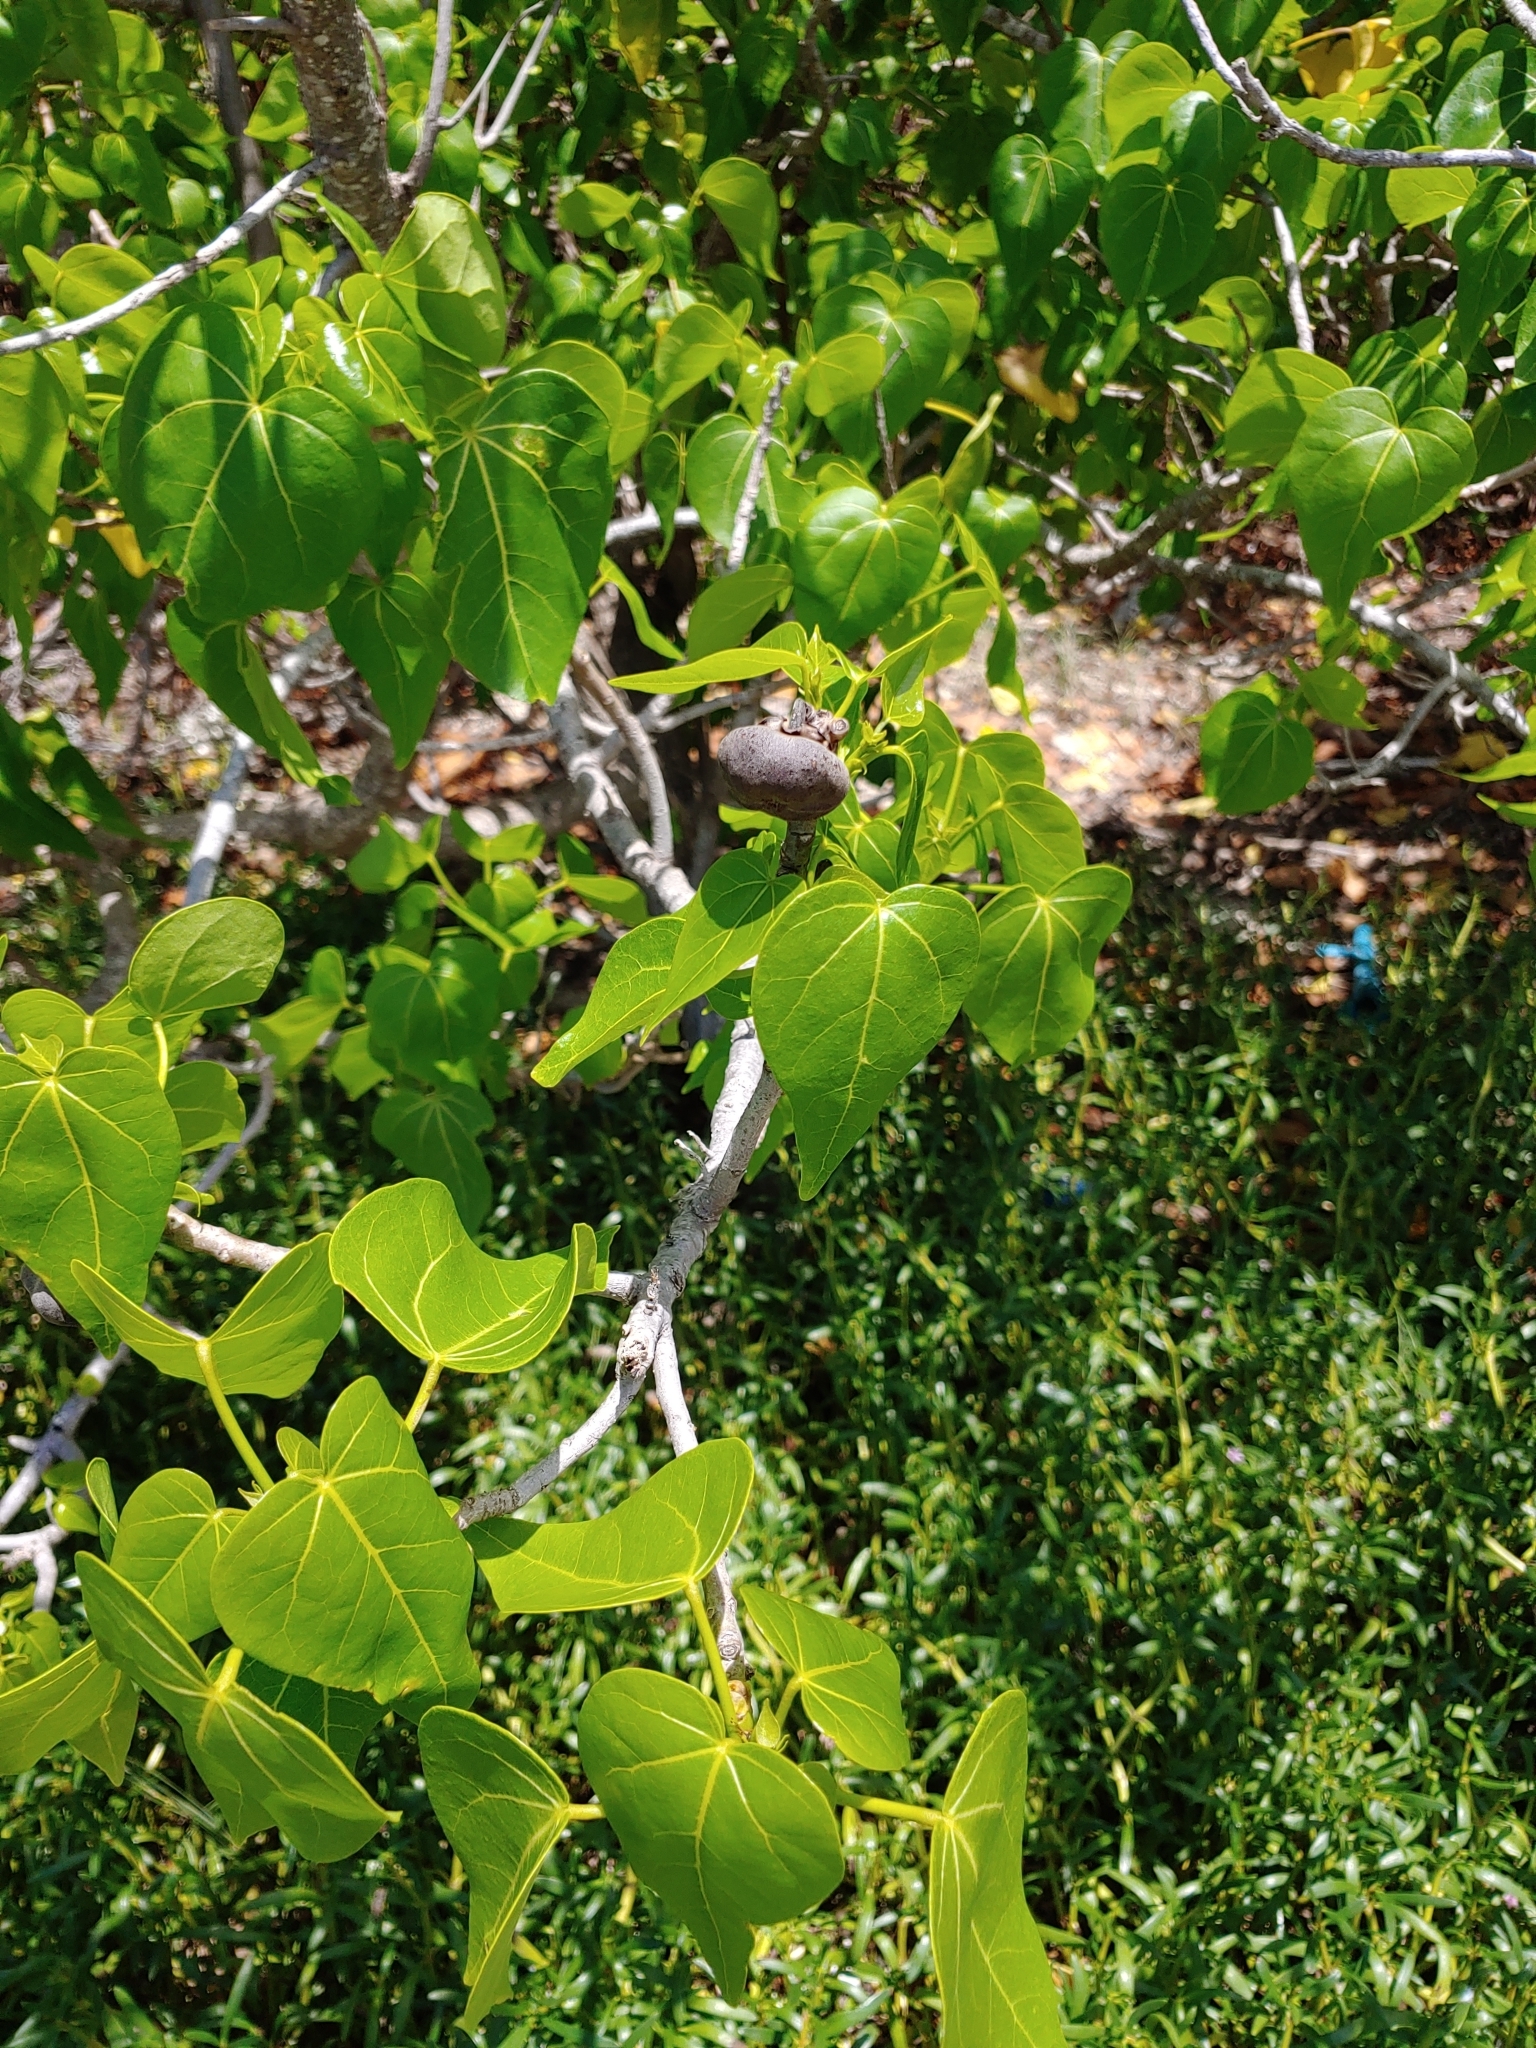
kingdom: Plantae
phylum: Tracheophyta
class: Magnoliopsida
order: Malvales
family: Malvaceae
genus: Thespesia
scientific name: Thespesia populnea
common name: Seaside mahoe
